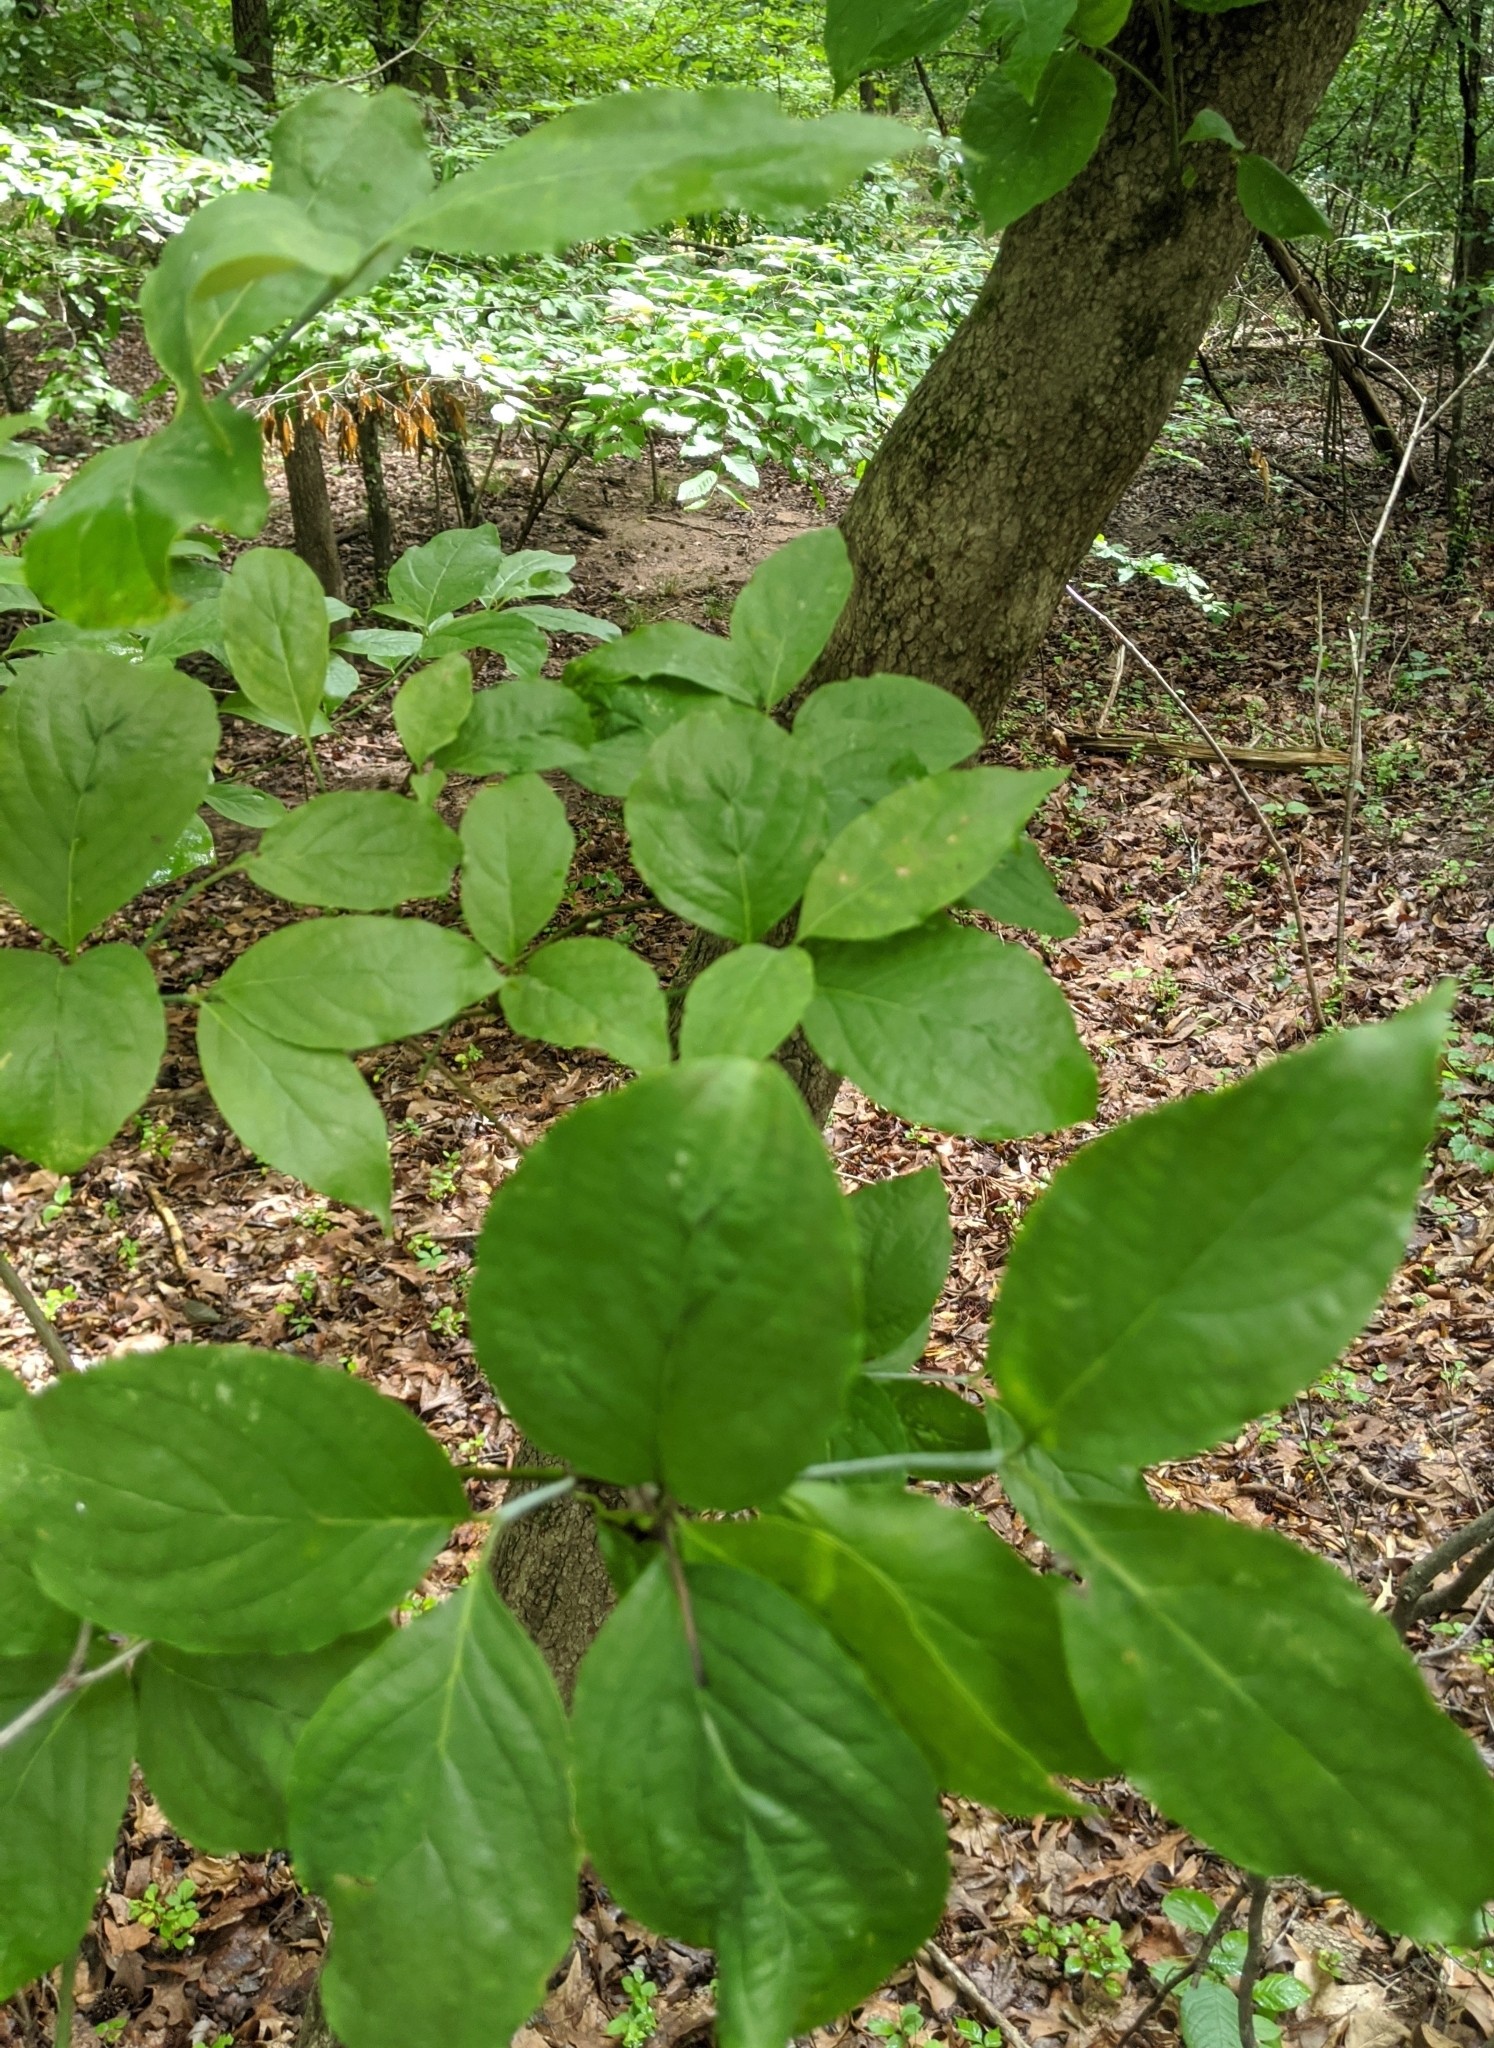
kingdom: Plantae
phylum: Tracheophyta
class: Magnoliopsida
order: Cornales
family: Cornaceae
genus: Cornus
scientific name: Cornus florida
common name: Flowering dogwood
